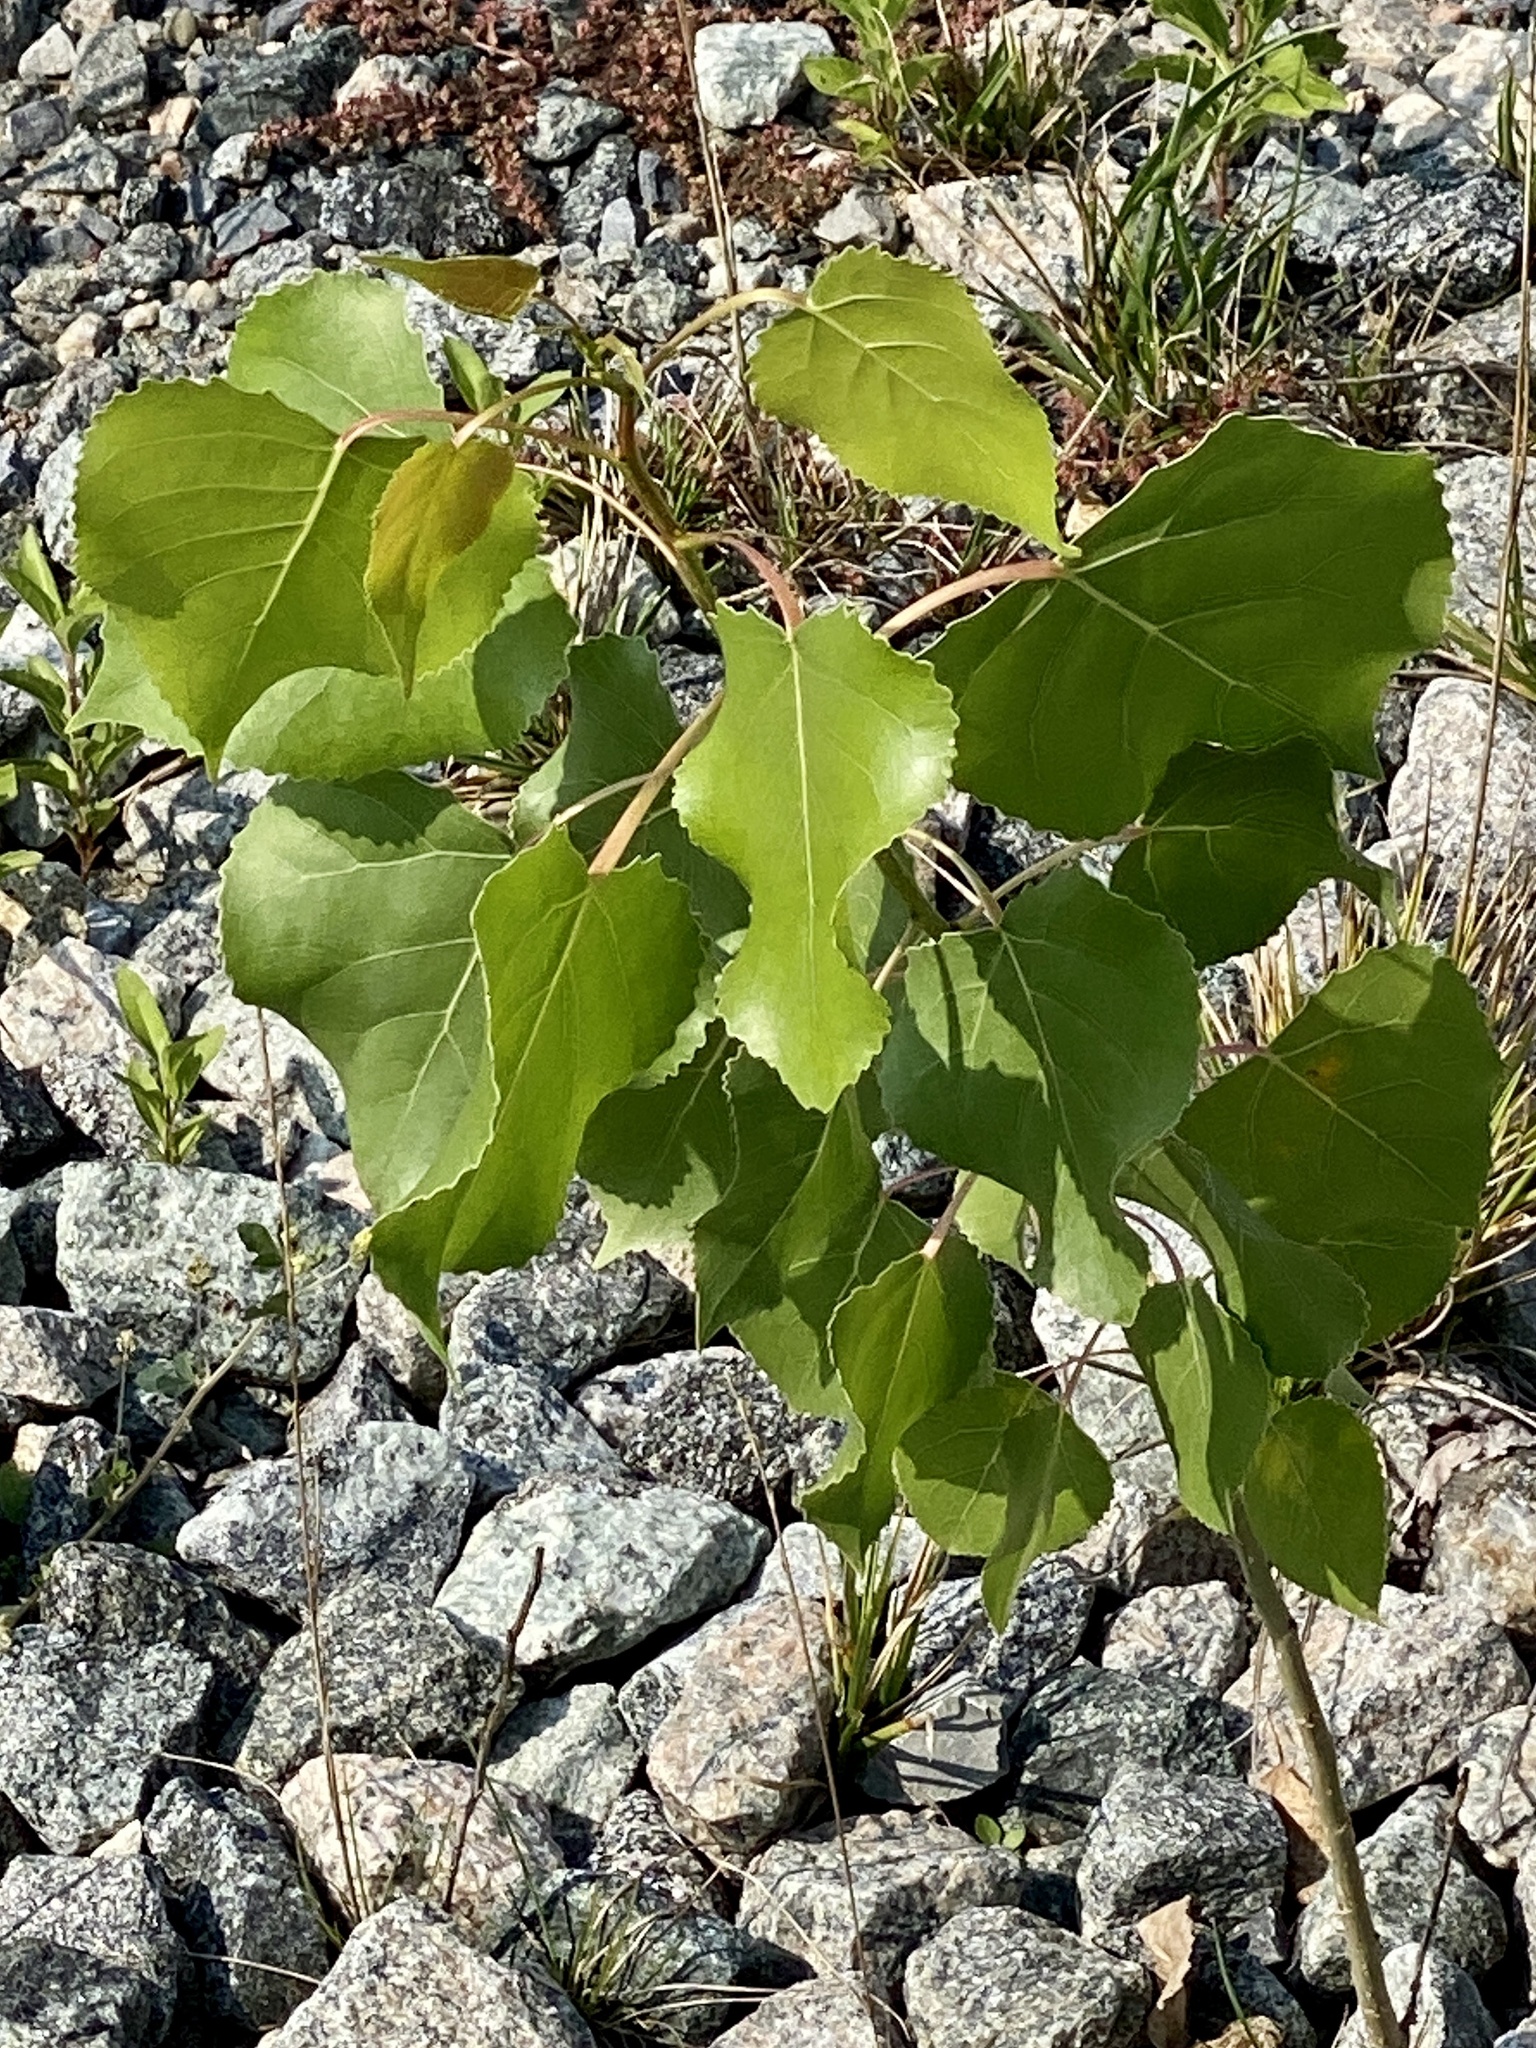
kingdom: Plantae
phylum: Tracheophyta
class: Magnoliopsida
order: Malpighiales
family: Salicaceae
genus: Populus
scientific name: Populus deltoides
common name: Eastern cottonwood
